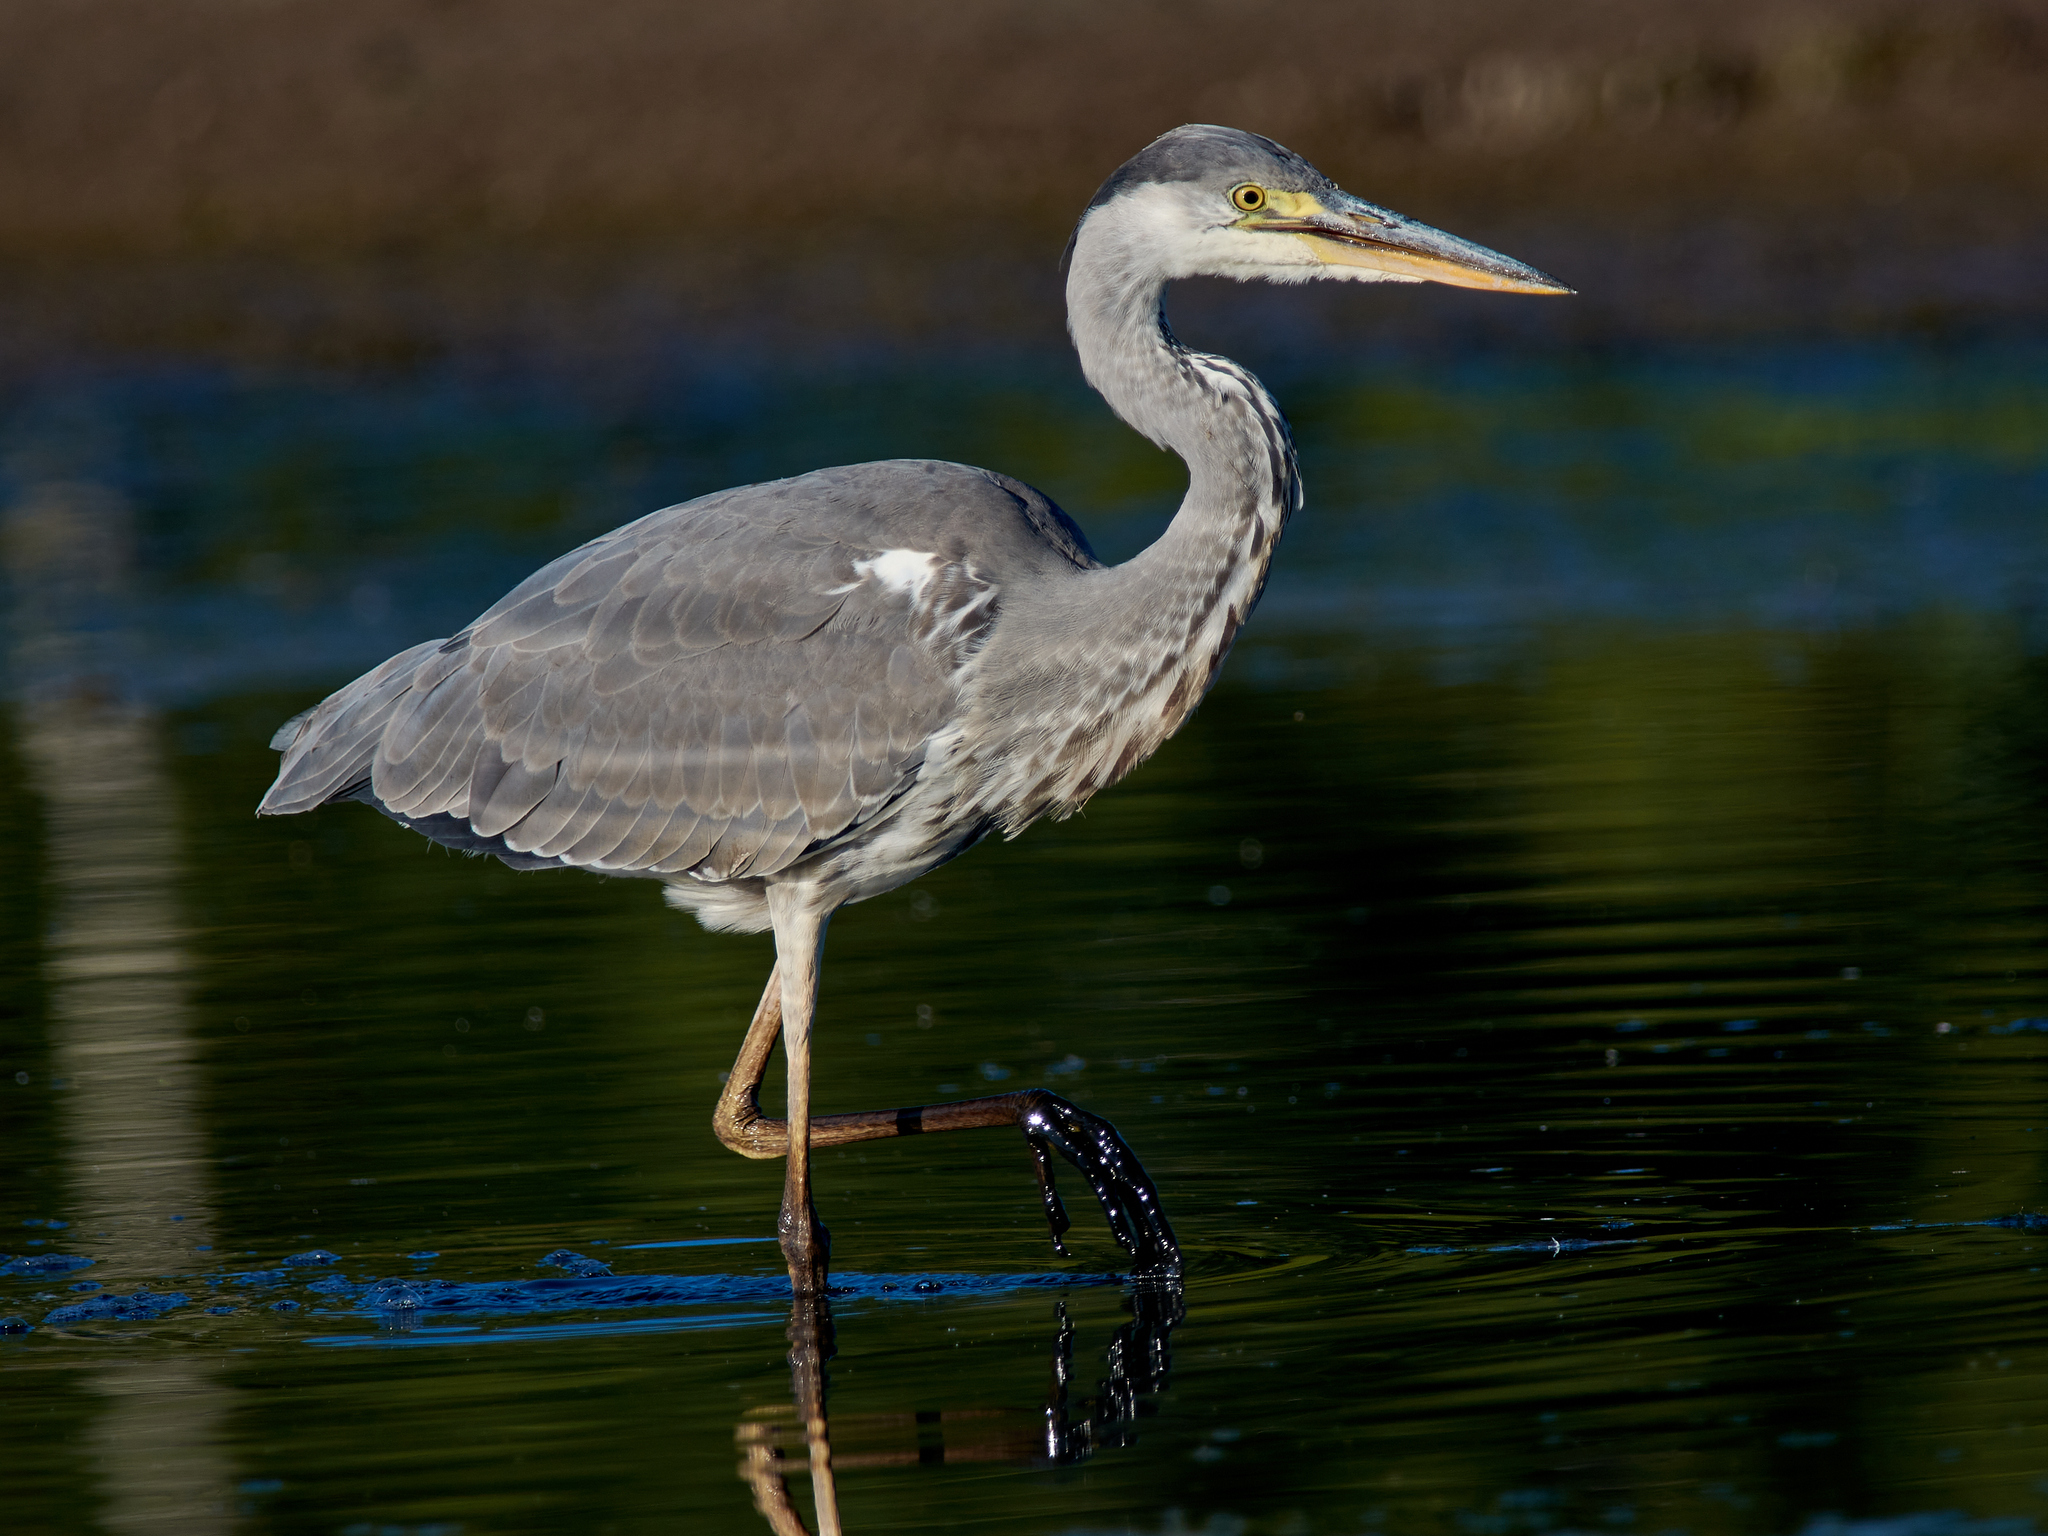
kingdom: Animalia
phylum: Chordata
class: Aves
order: Pelecaniformes
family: Ardeidae
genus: Ardea
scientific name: Ardea cinerea
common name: Grey heron
